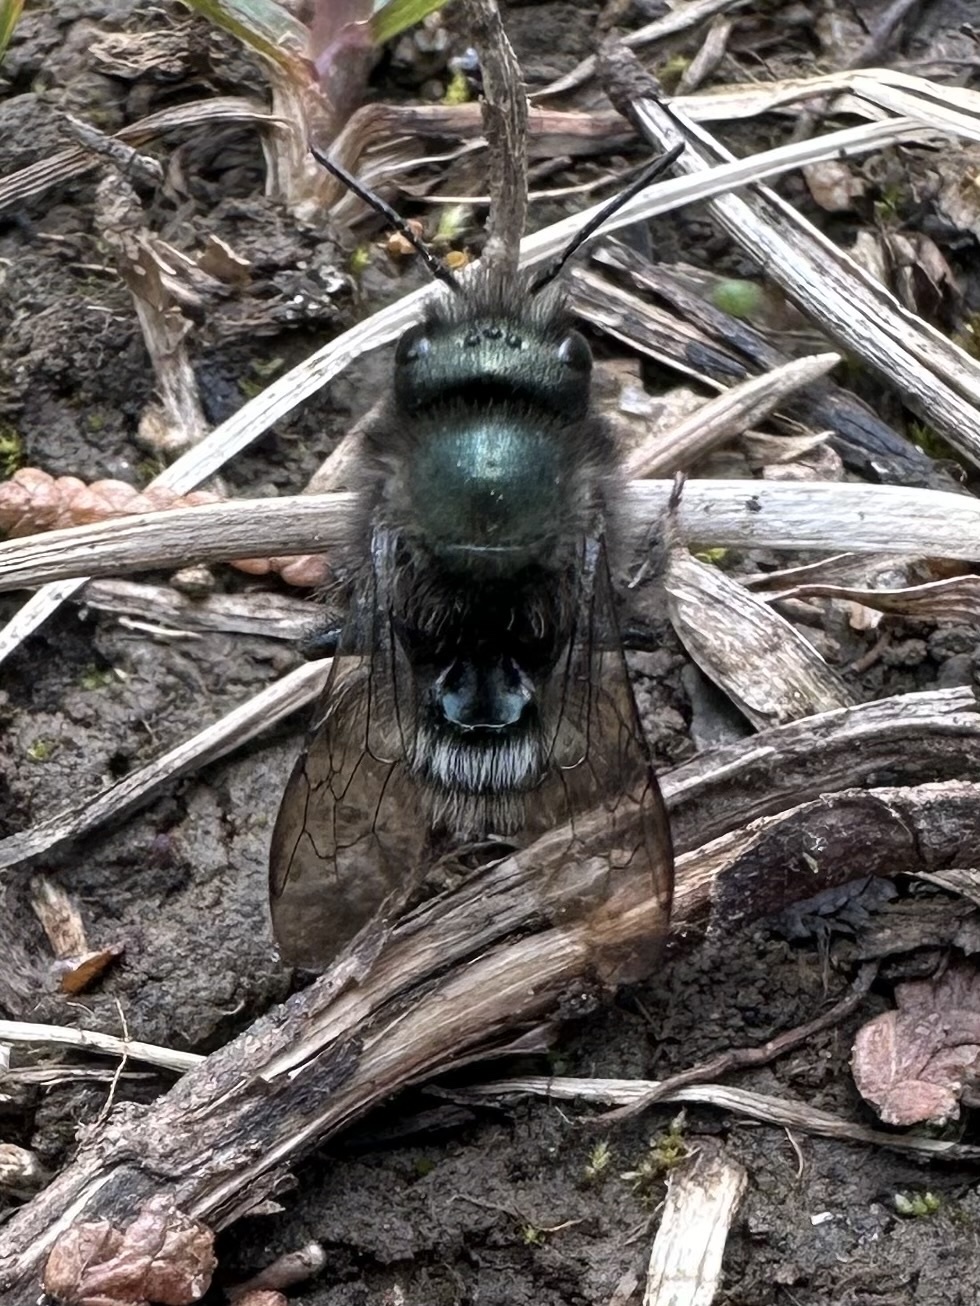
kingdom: Animalia
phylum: Arthropoda
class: Insecta
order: Hymenoptera
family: Megachilidae
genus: Osmia
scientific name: Osmia lignaria
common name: Blue orchard bee
